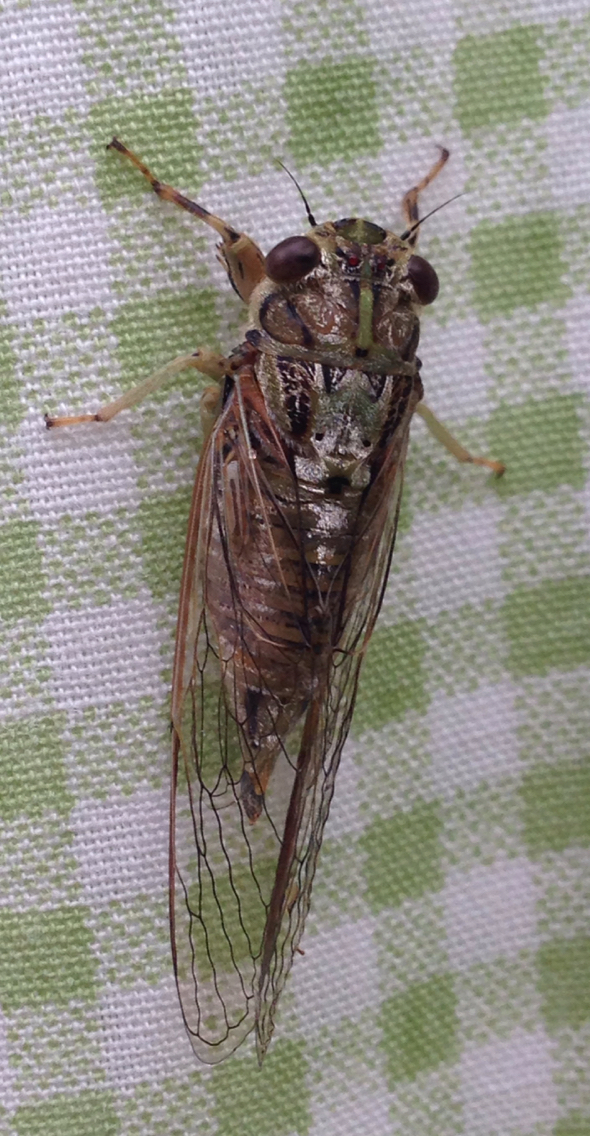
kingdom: Animalia
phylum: Arthropoda
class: Insecta
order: Hemiptera
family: Cicadidae
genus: Yoyetta
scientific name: Yoyetta celis
